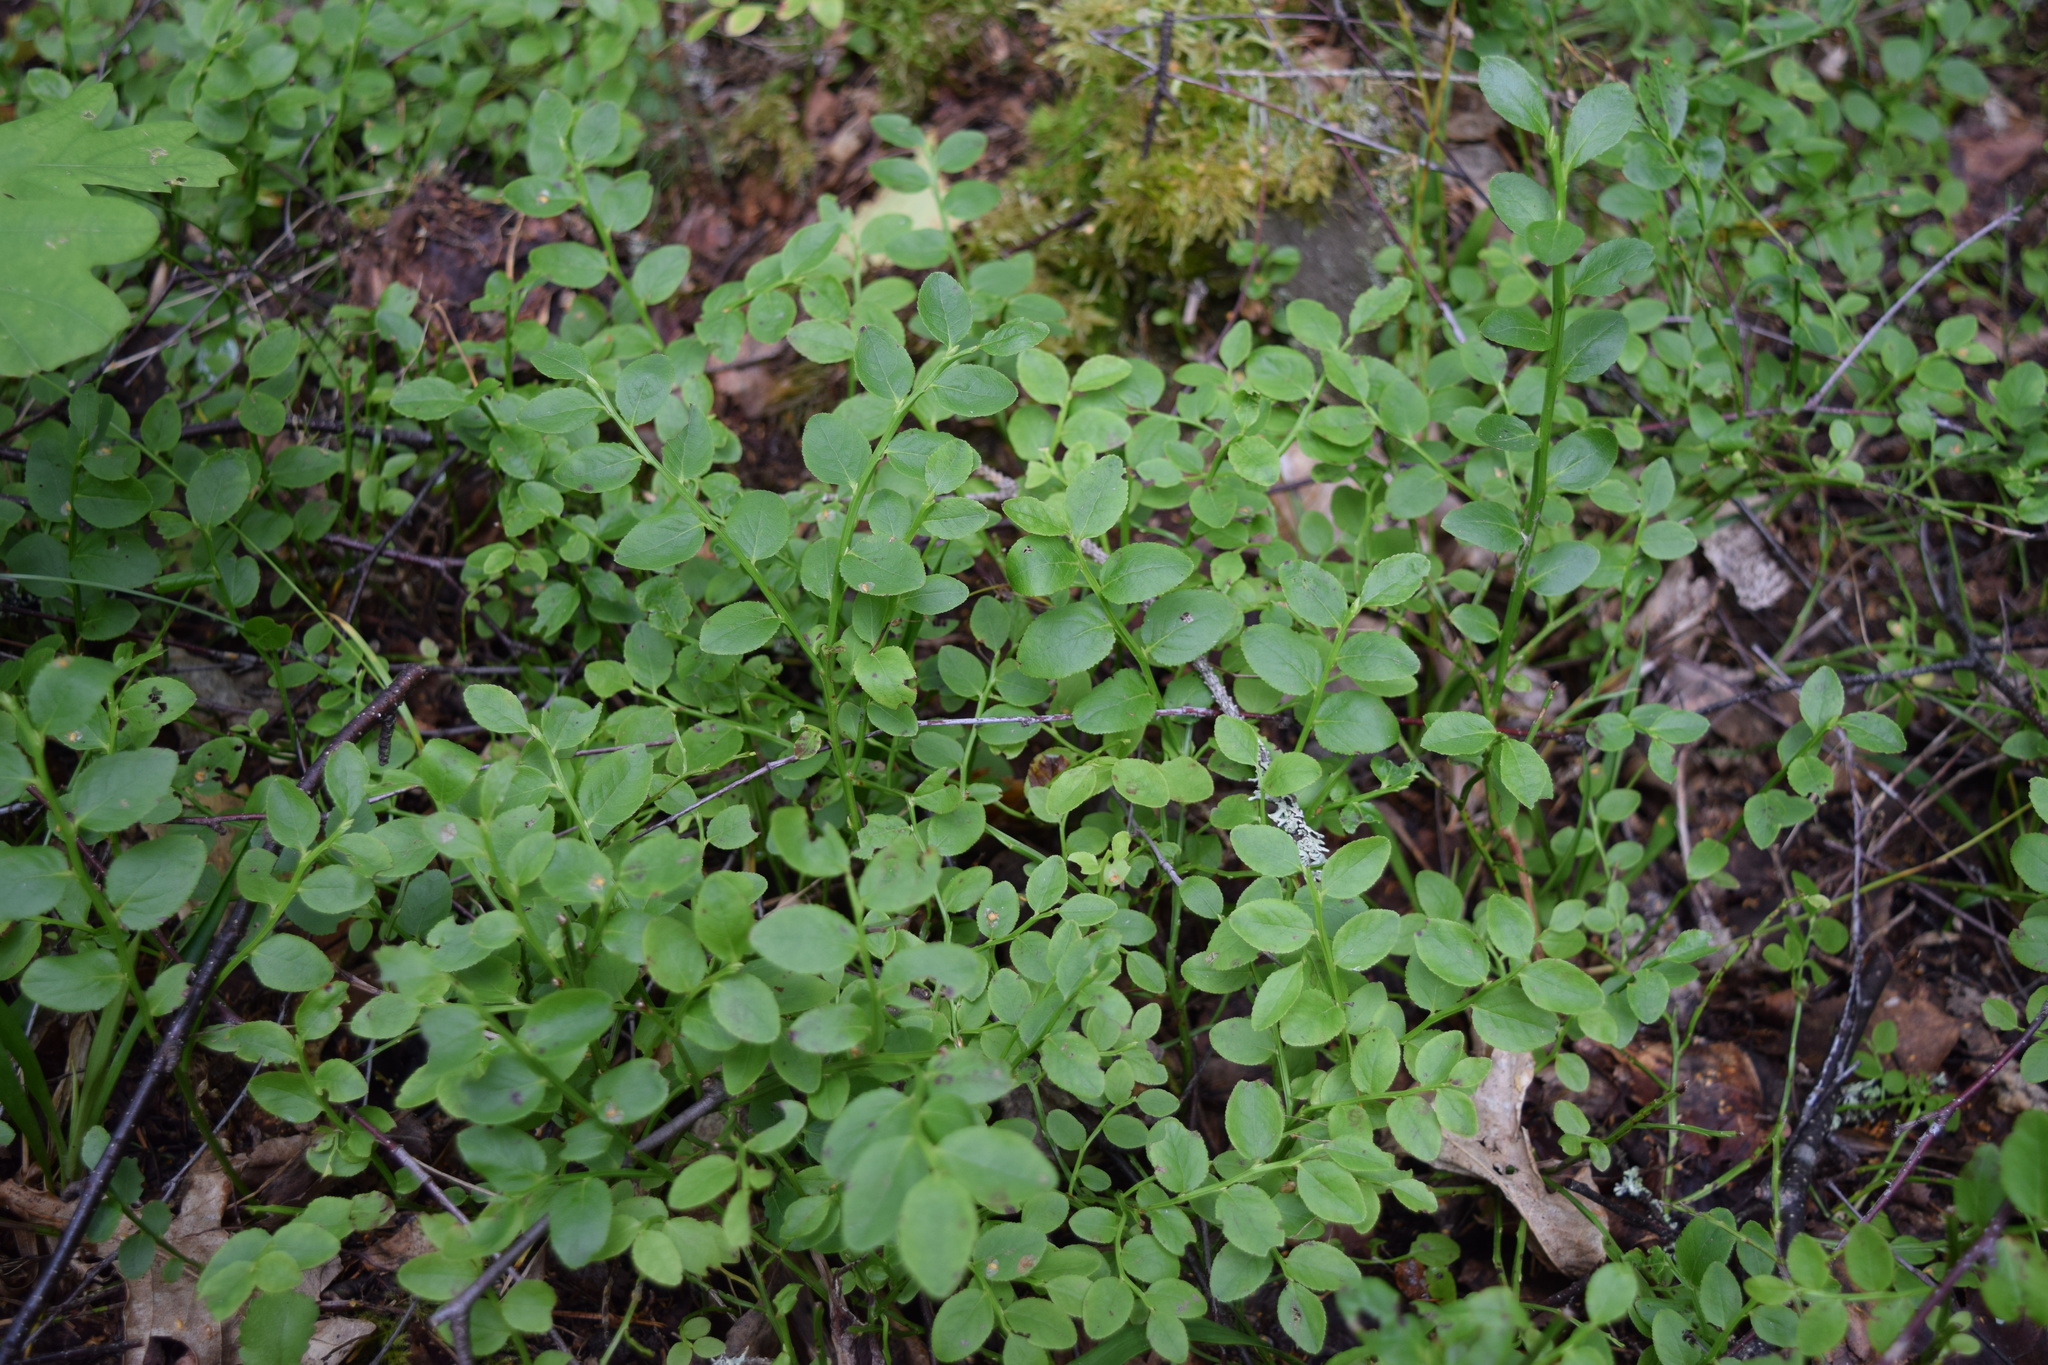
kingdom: Plantae
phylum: Tracheophyta
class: Magnoliopsida
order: Ericales
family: Ericaceae
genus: Vaccinium
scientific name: Vaccinium myrtillus
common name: Bilberry
